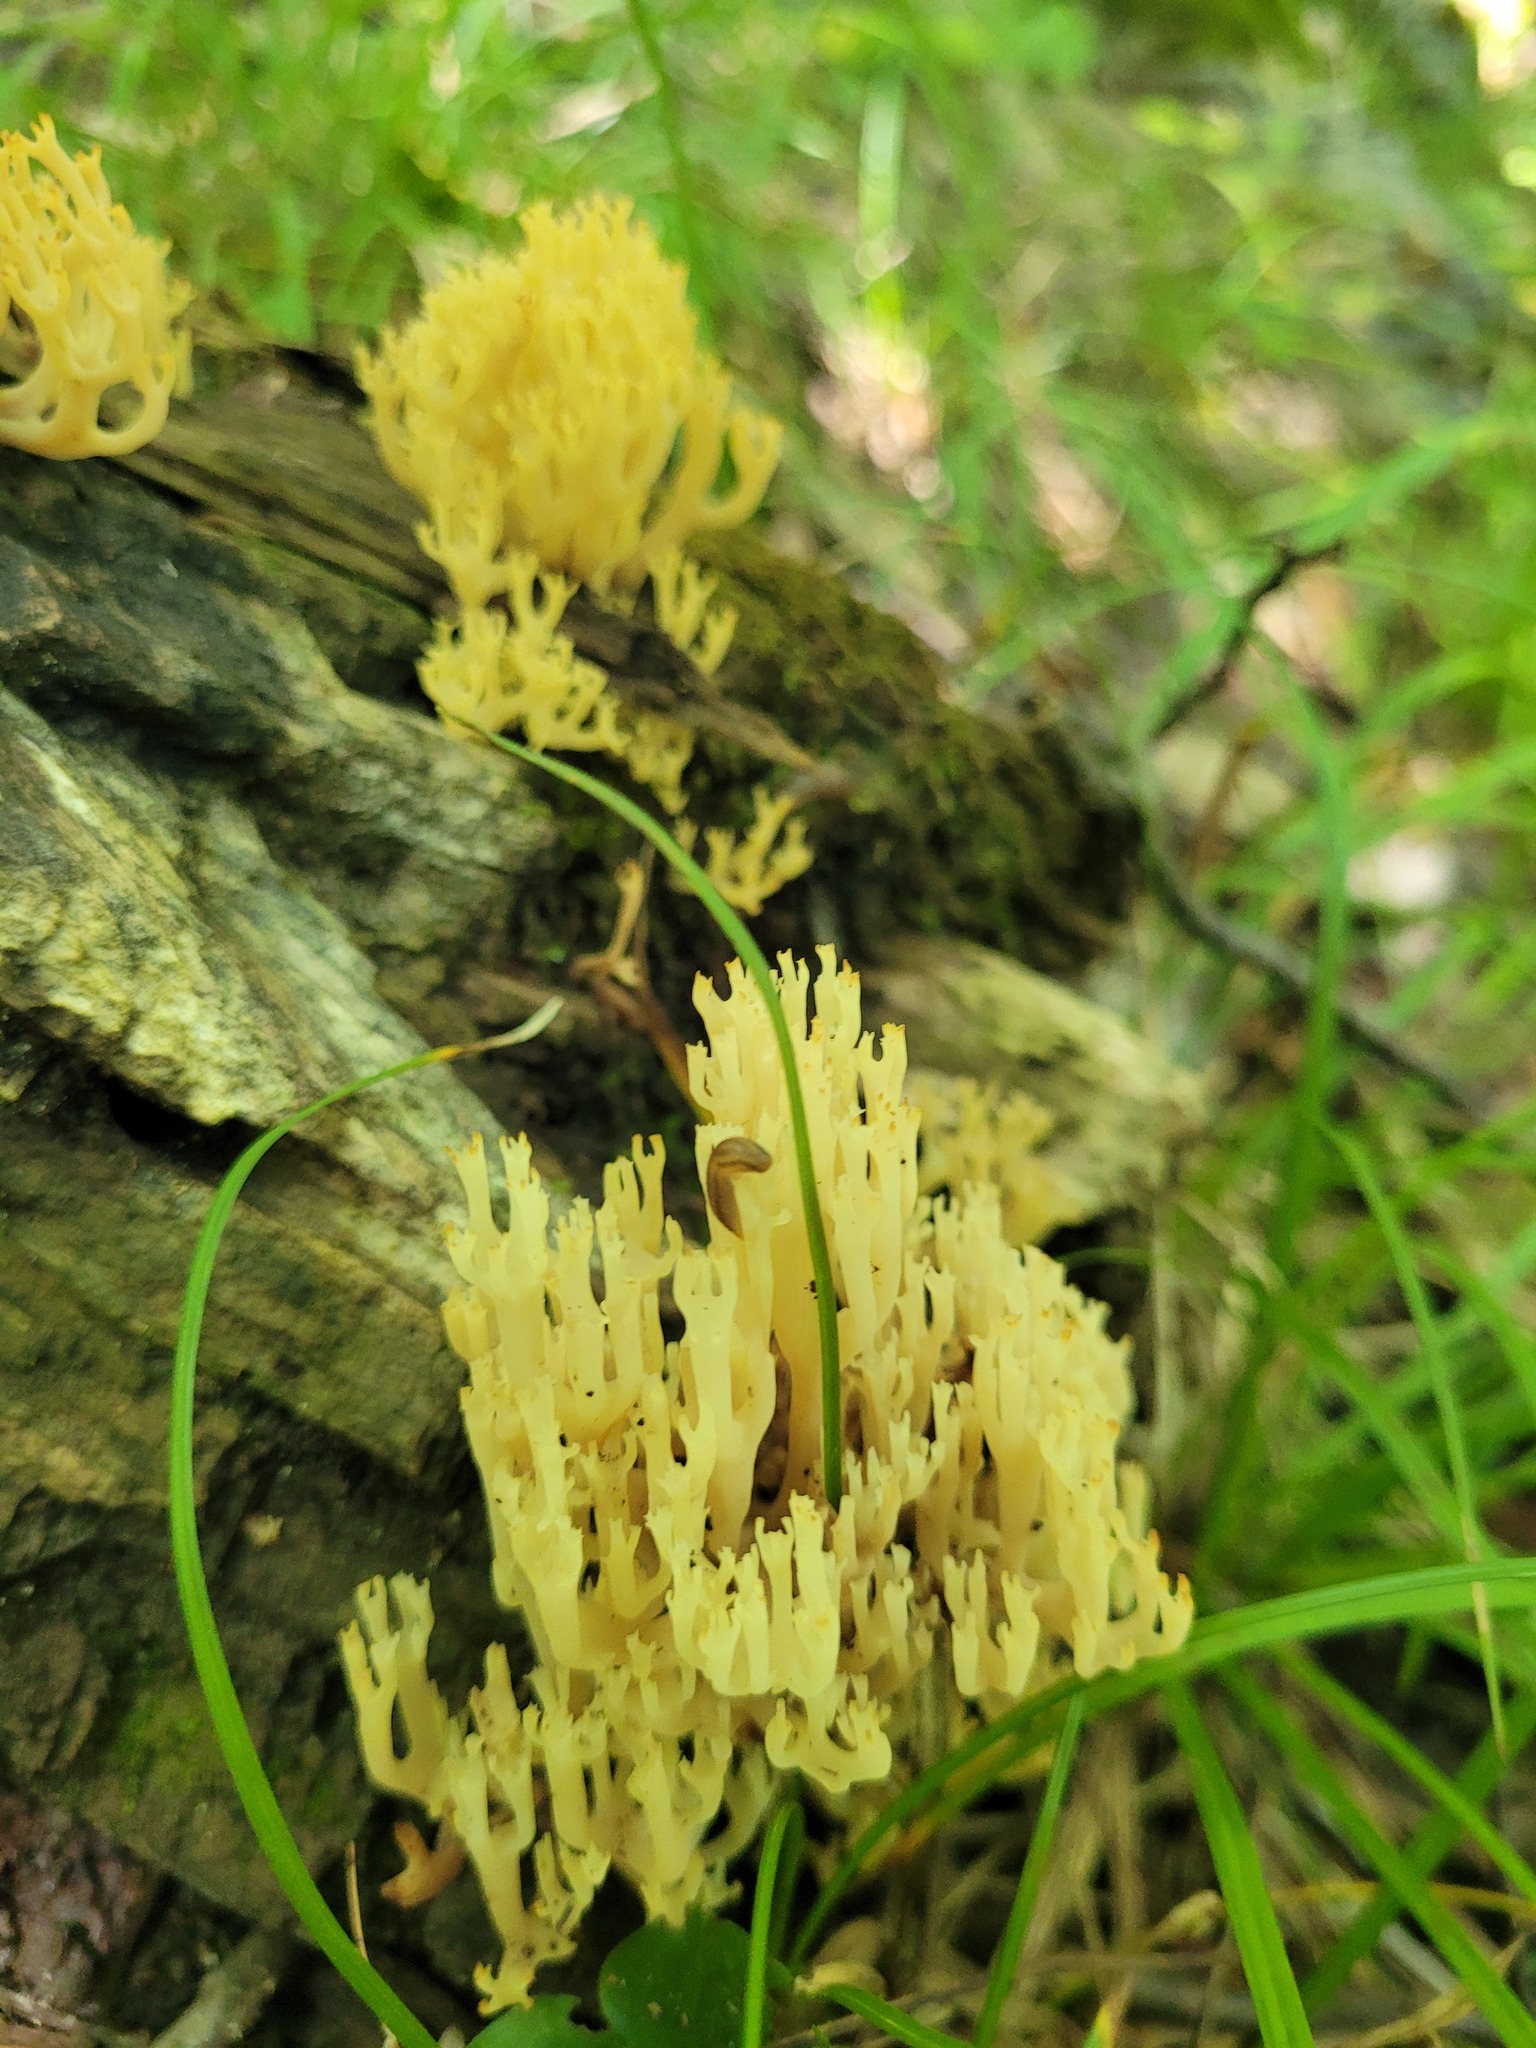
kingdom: Fungi
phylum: Basidiomycota
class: Agaricomycetes
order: Russulales
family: Auriscalpiaceae
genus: Artomyces
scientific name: Artomyces pyxidatus
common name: Crown-tipped coral fungus
